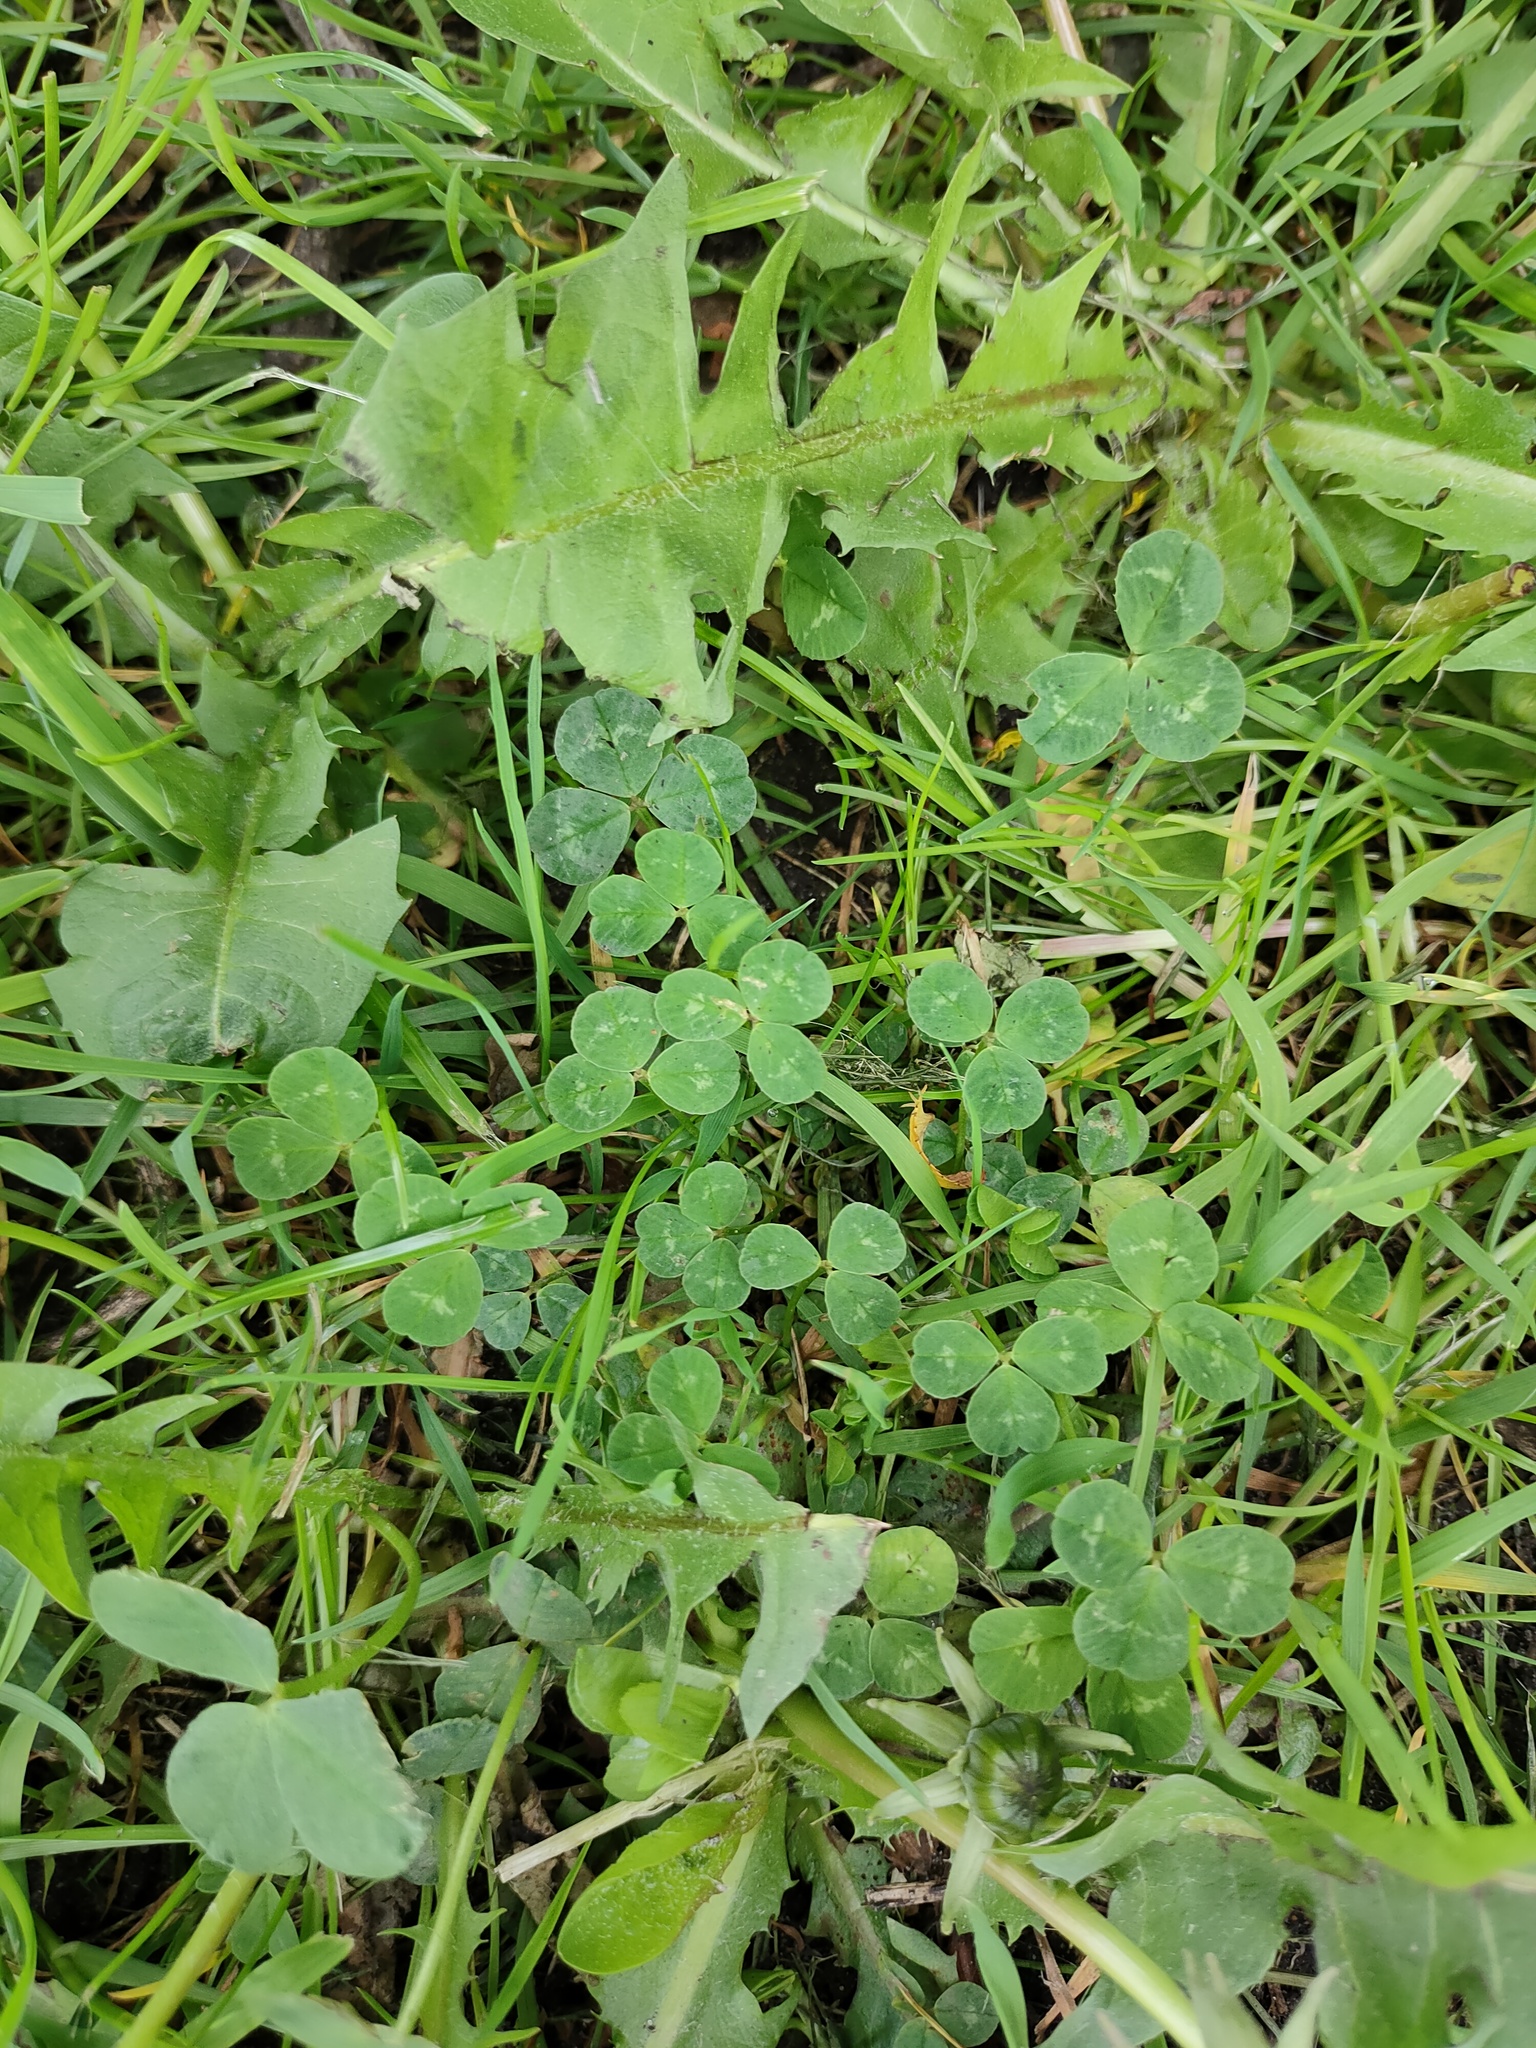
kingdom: Plantae
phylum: Tracheophyta
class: Magnoliopsida
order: Fabales
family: Fabaceae
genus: Trifolium
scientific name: Trifolium repens
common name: White clover
